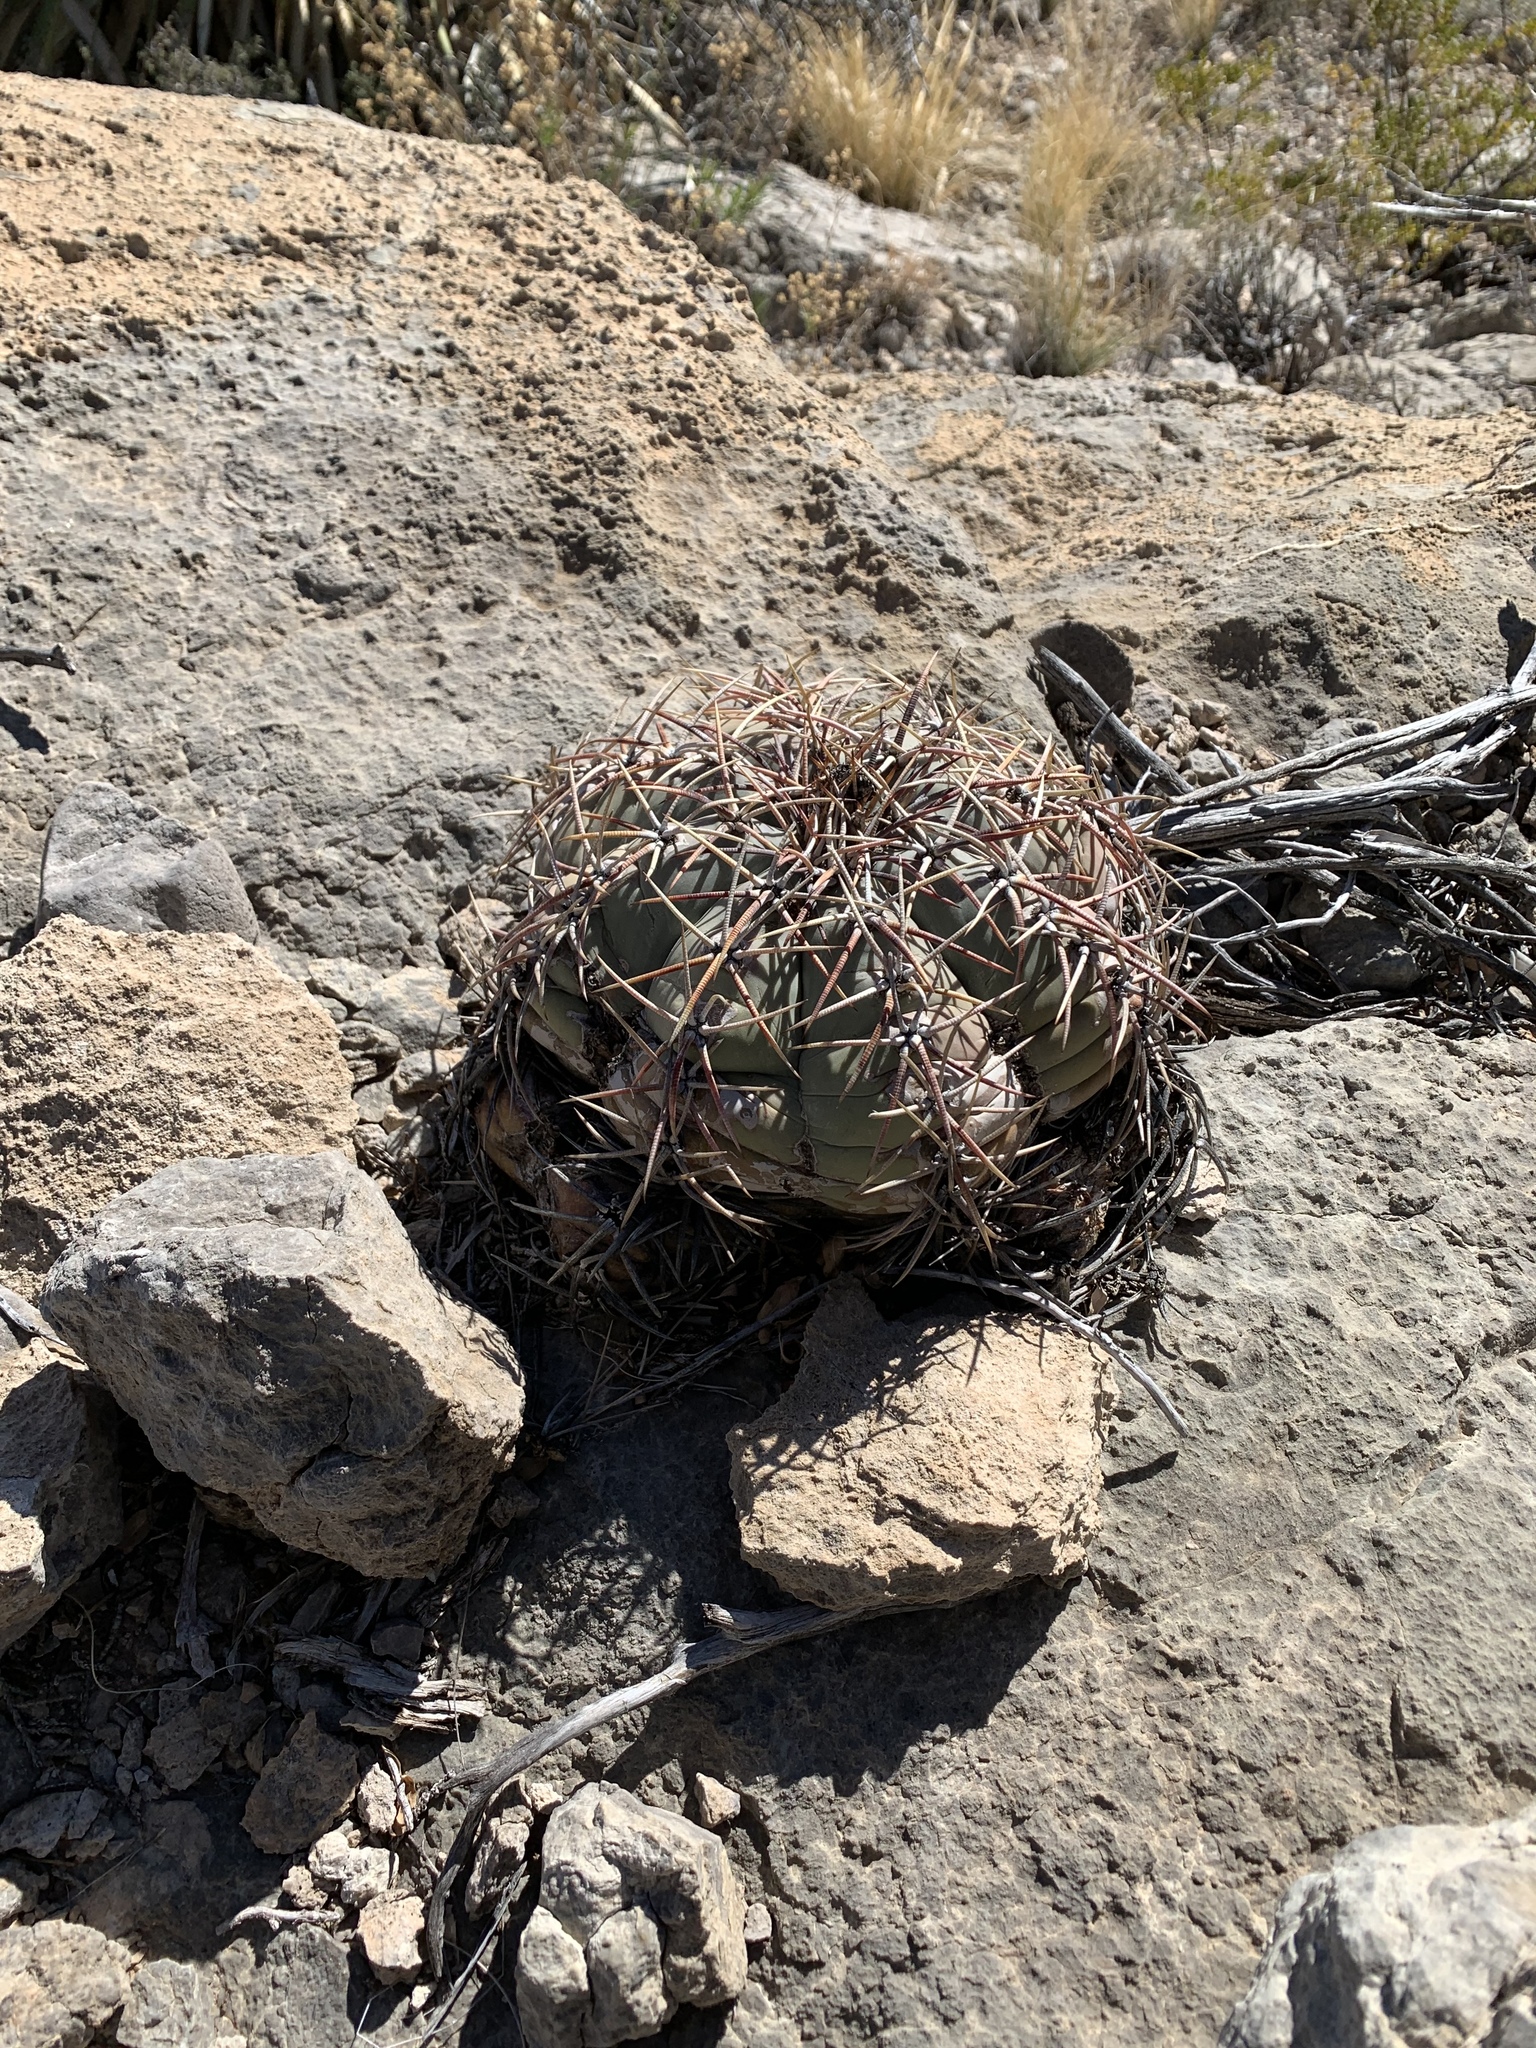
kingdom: Plantae
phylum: Tracheophyta
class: Magnoliopsida
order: Caryophyllales
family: Cactaceae
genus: Echinocactus
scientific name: Echinocactus horizonthalonius
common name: Devilshead
